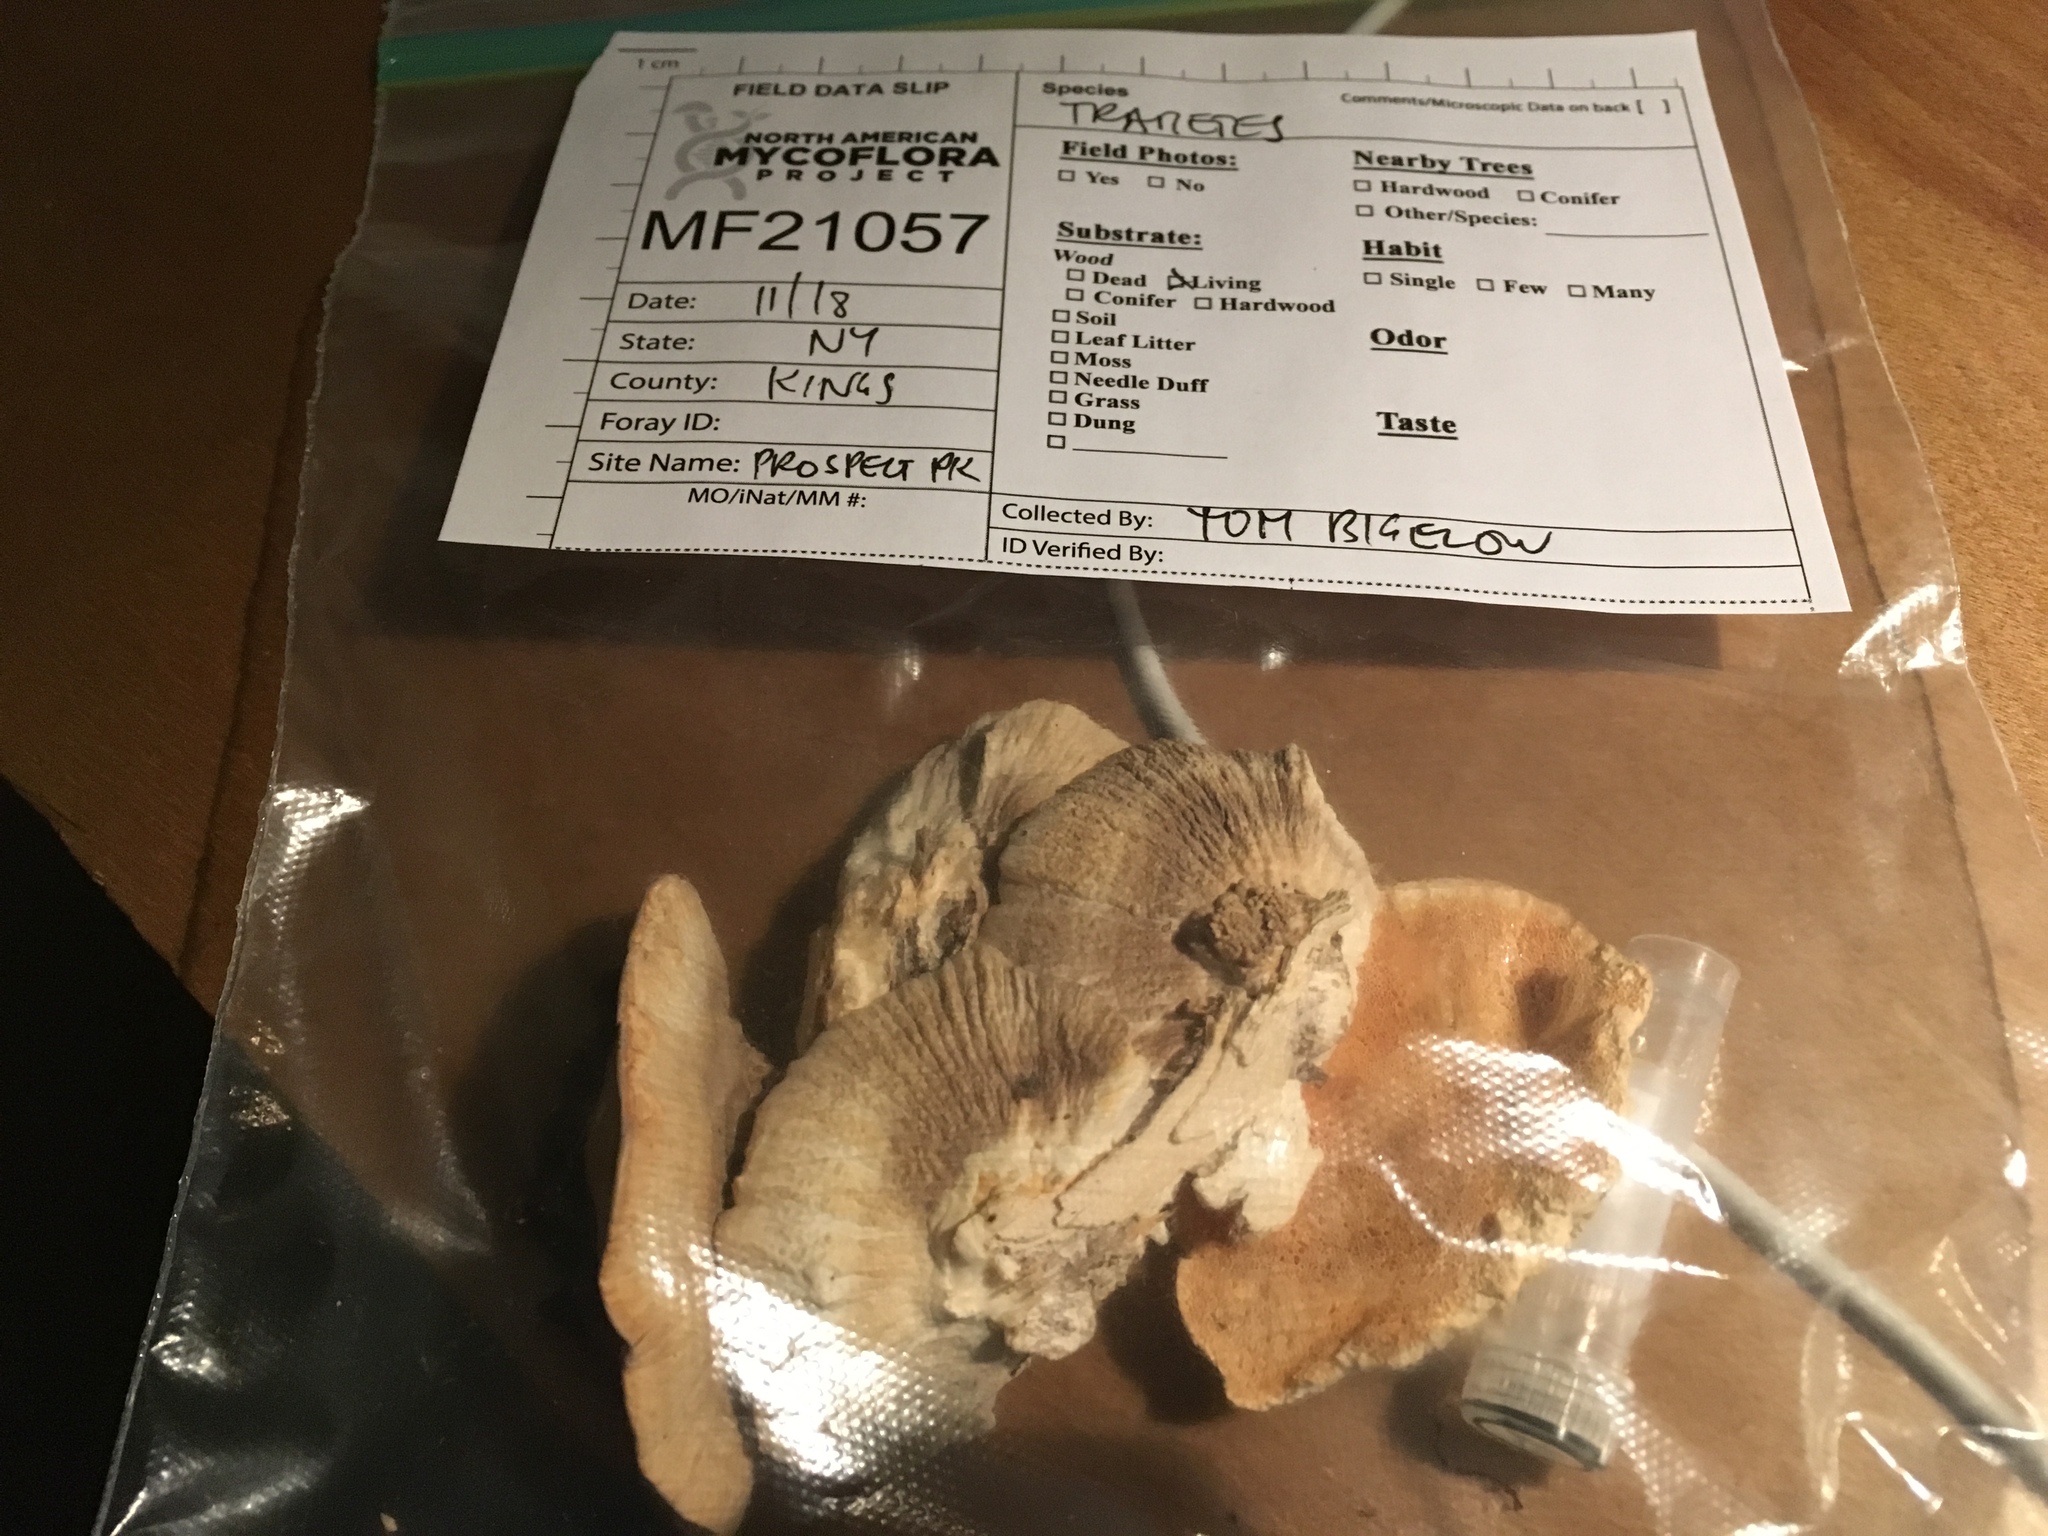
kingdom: Fungi
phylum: Basidiomycota
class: Agaricomycetes
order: Polyporales
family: Polyporaceae
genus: Trametes
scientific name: Trametes lactinea
